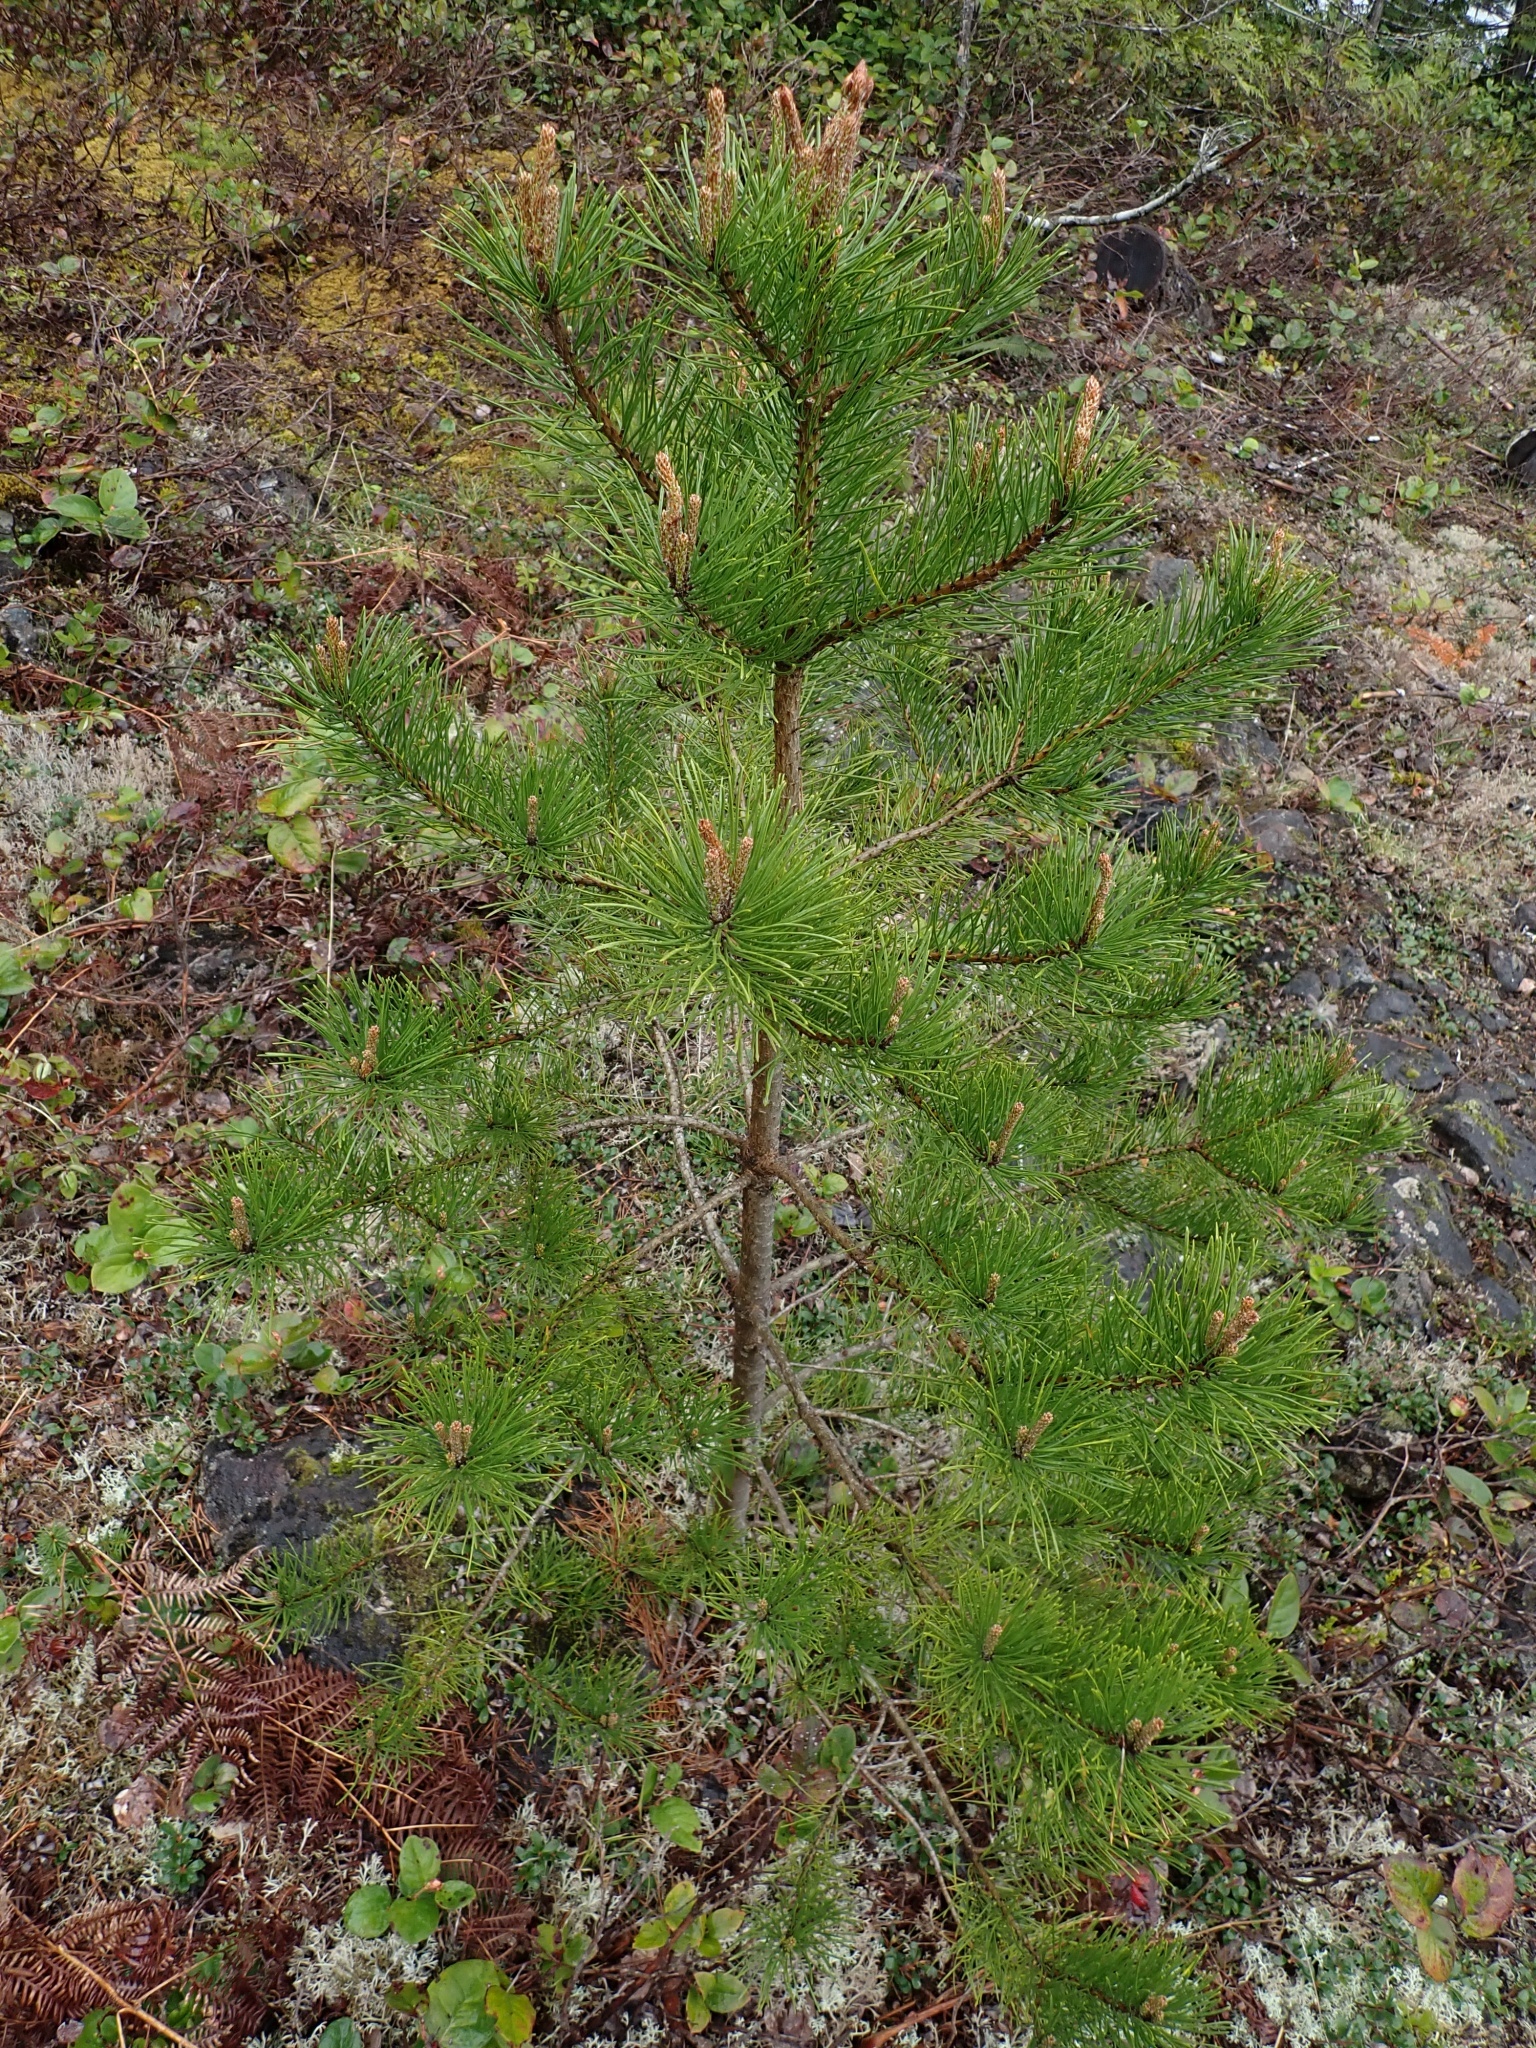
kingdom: Plantae
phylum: Tracheophyta
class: Pinopsida
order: Pinales
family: Pinaceae
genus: Pinus
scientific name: Pinus contorta
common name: Lodgepole pine
